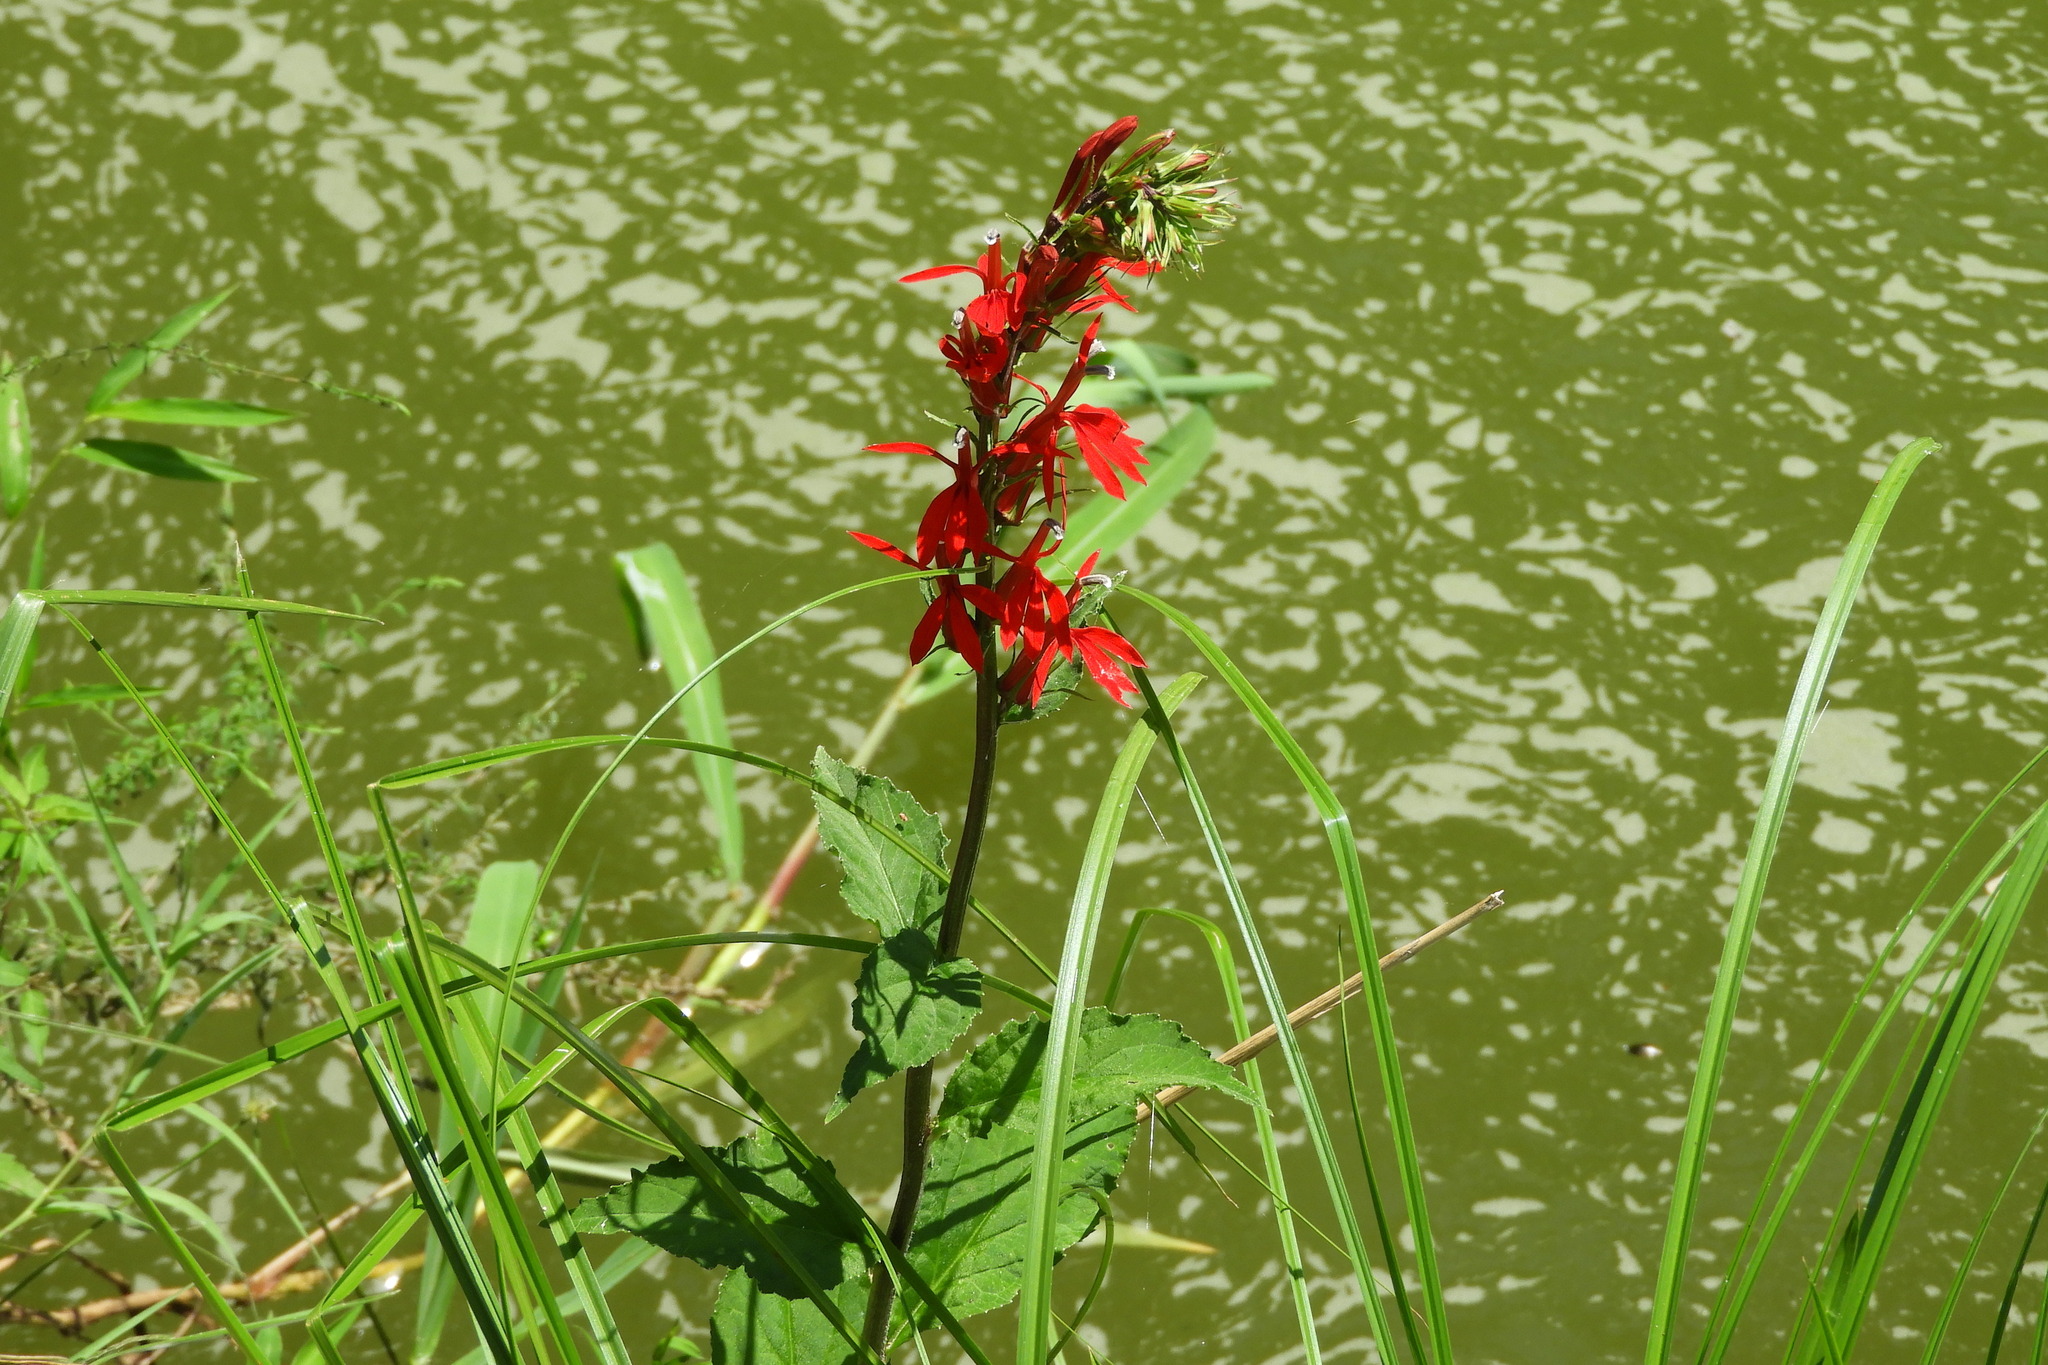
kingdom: Plantae
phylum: Tracheophyta
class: Magnoliopsida
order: Asterales
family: Campanulaceae
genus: Lobelia
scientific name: Lobelia cardinalis
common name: Cardinal flower
